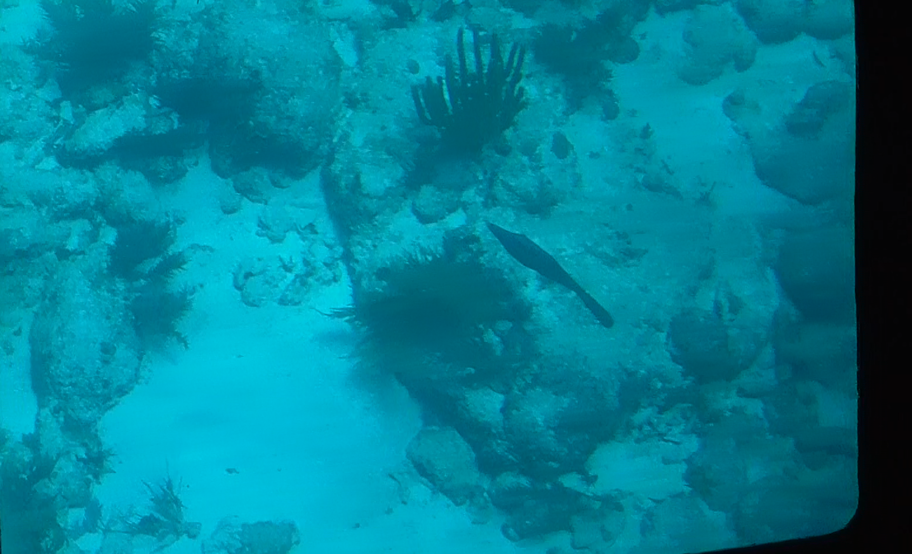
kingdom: Animalia
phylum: Chordata
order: Tetraodontiformes
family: Monacanthidae
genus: Aluterus
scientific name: Aluterus scriptus
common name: Scribbled leatherjacket filefish
